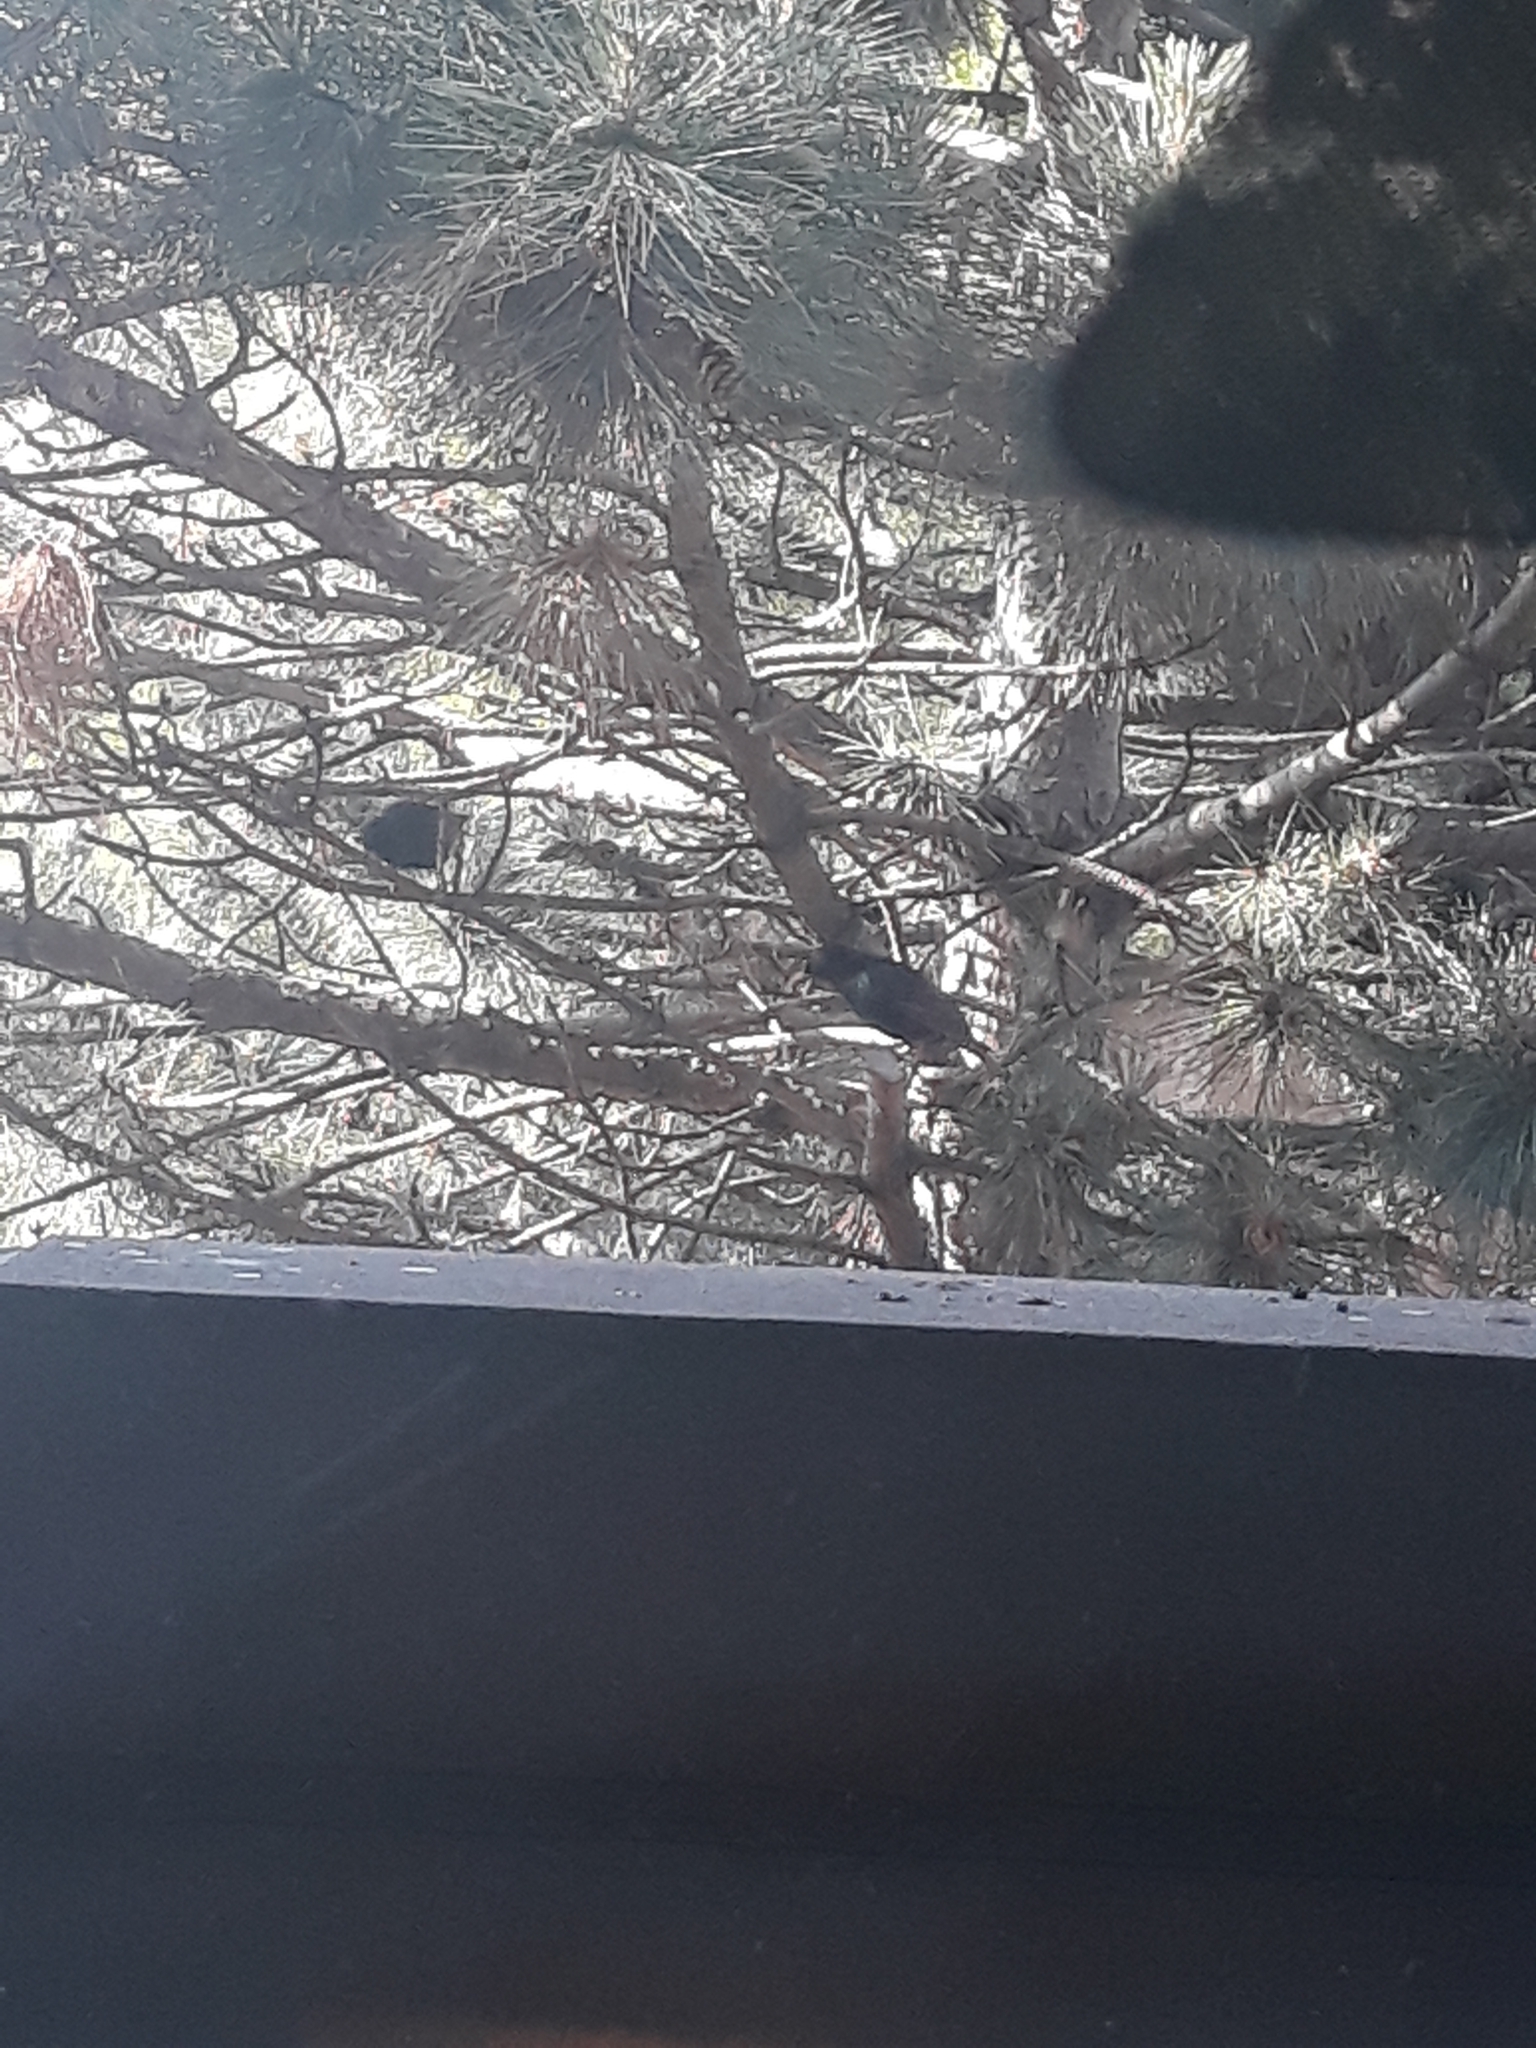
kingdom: Animalia
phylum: Chordata
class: Aves
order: Passeriformes
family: Sturnidae
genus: Sturnus
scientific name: Sturnus vulgaris
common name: Common starling
